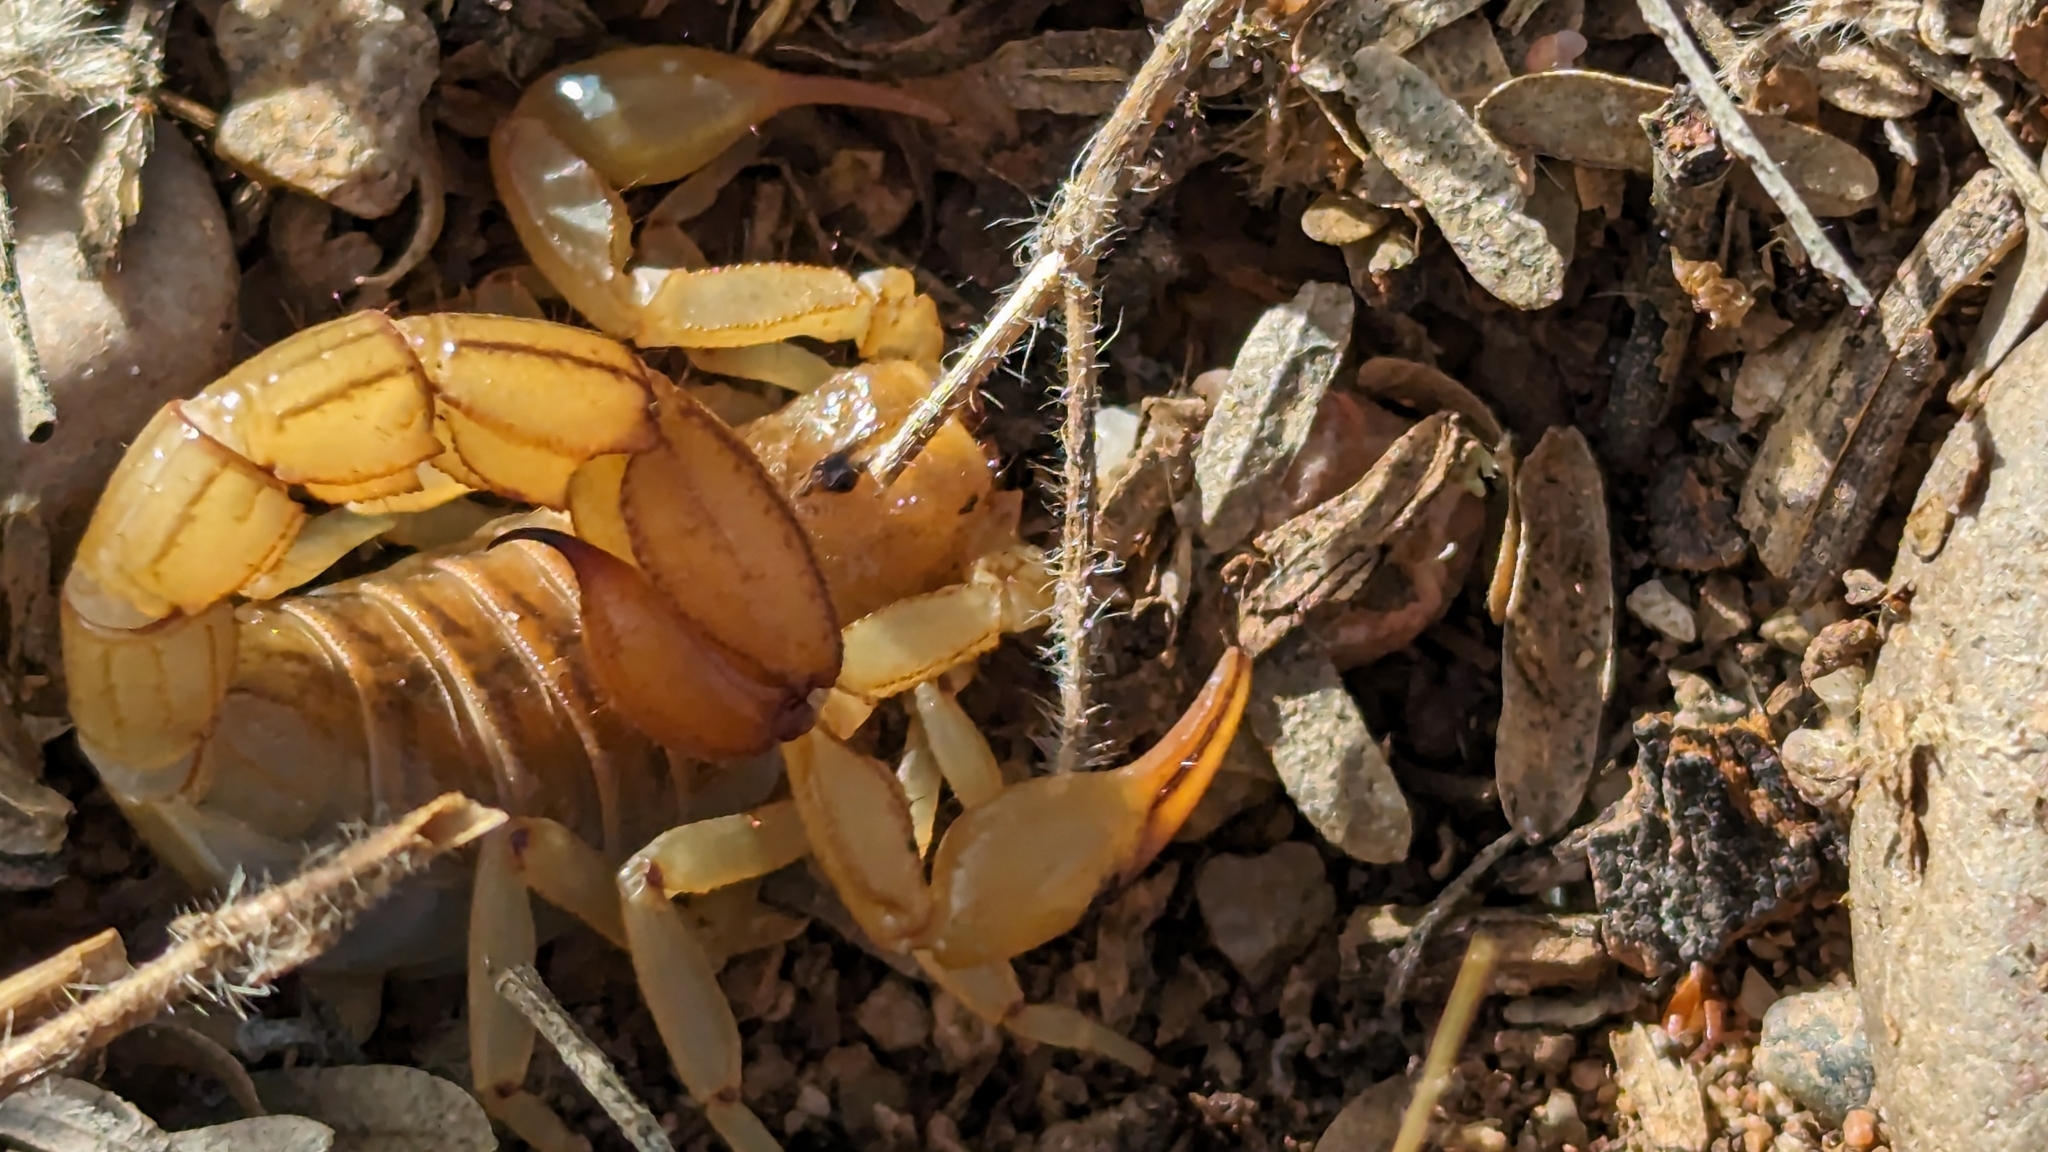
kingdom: Animalia
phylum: Arthropoda
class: Arachnida
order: Scorpiones
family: Vaejovidae
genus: Paravaejovis
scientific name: Paravaejovis spinigerus
